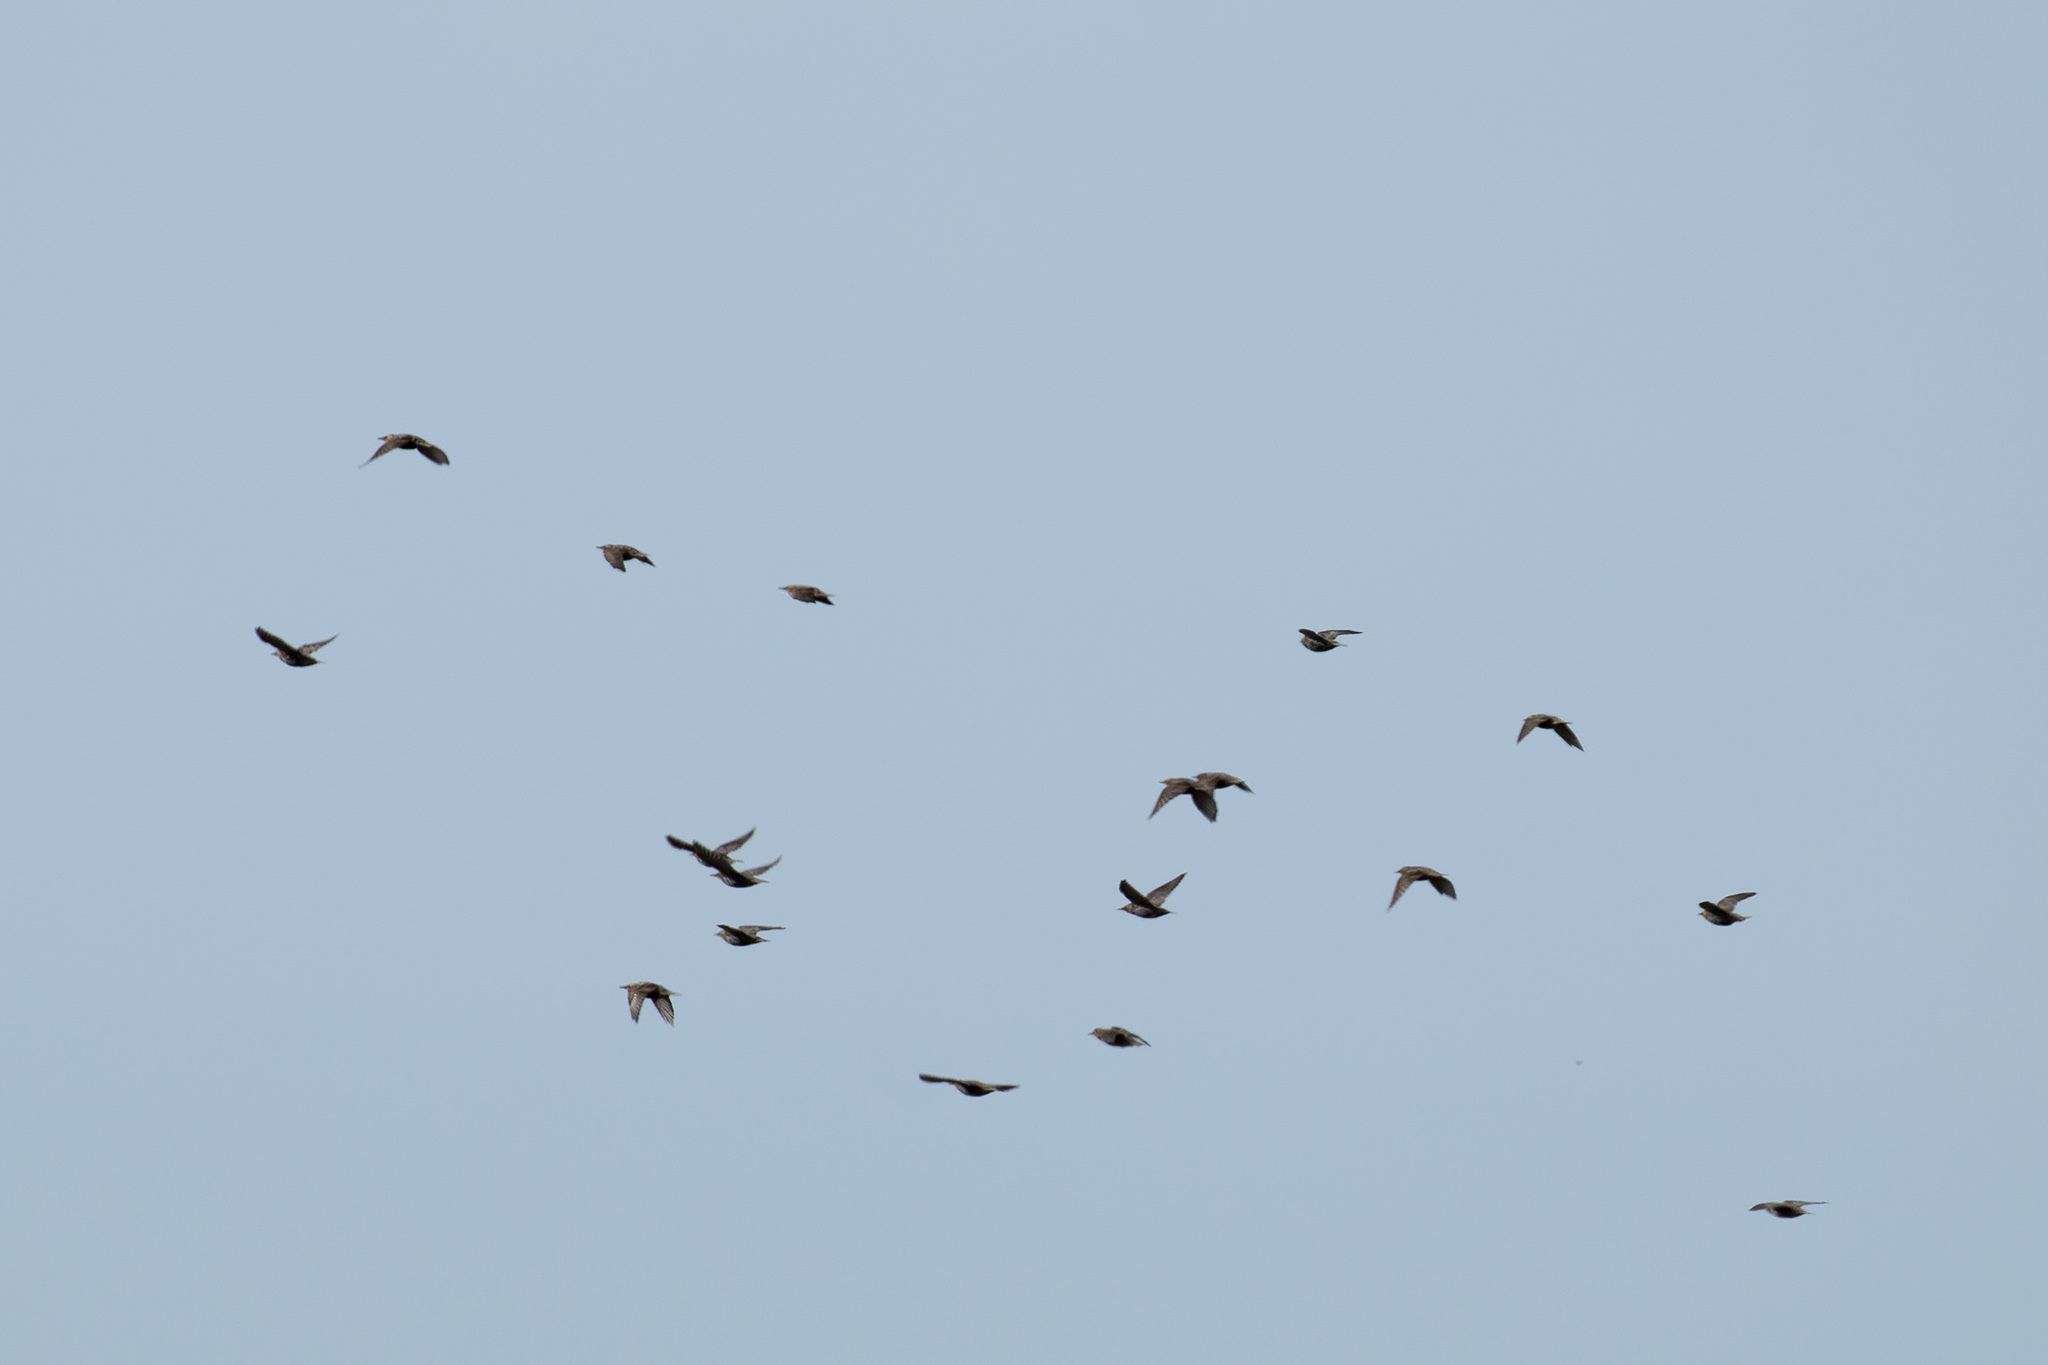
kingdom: Animalia
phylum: Chordata
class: Aves
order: Passeriformes
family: Sturnidae
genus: Sturnus
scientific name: Sturnus vulgaris
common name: Common starling
